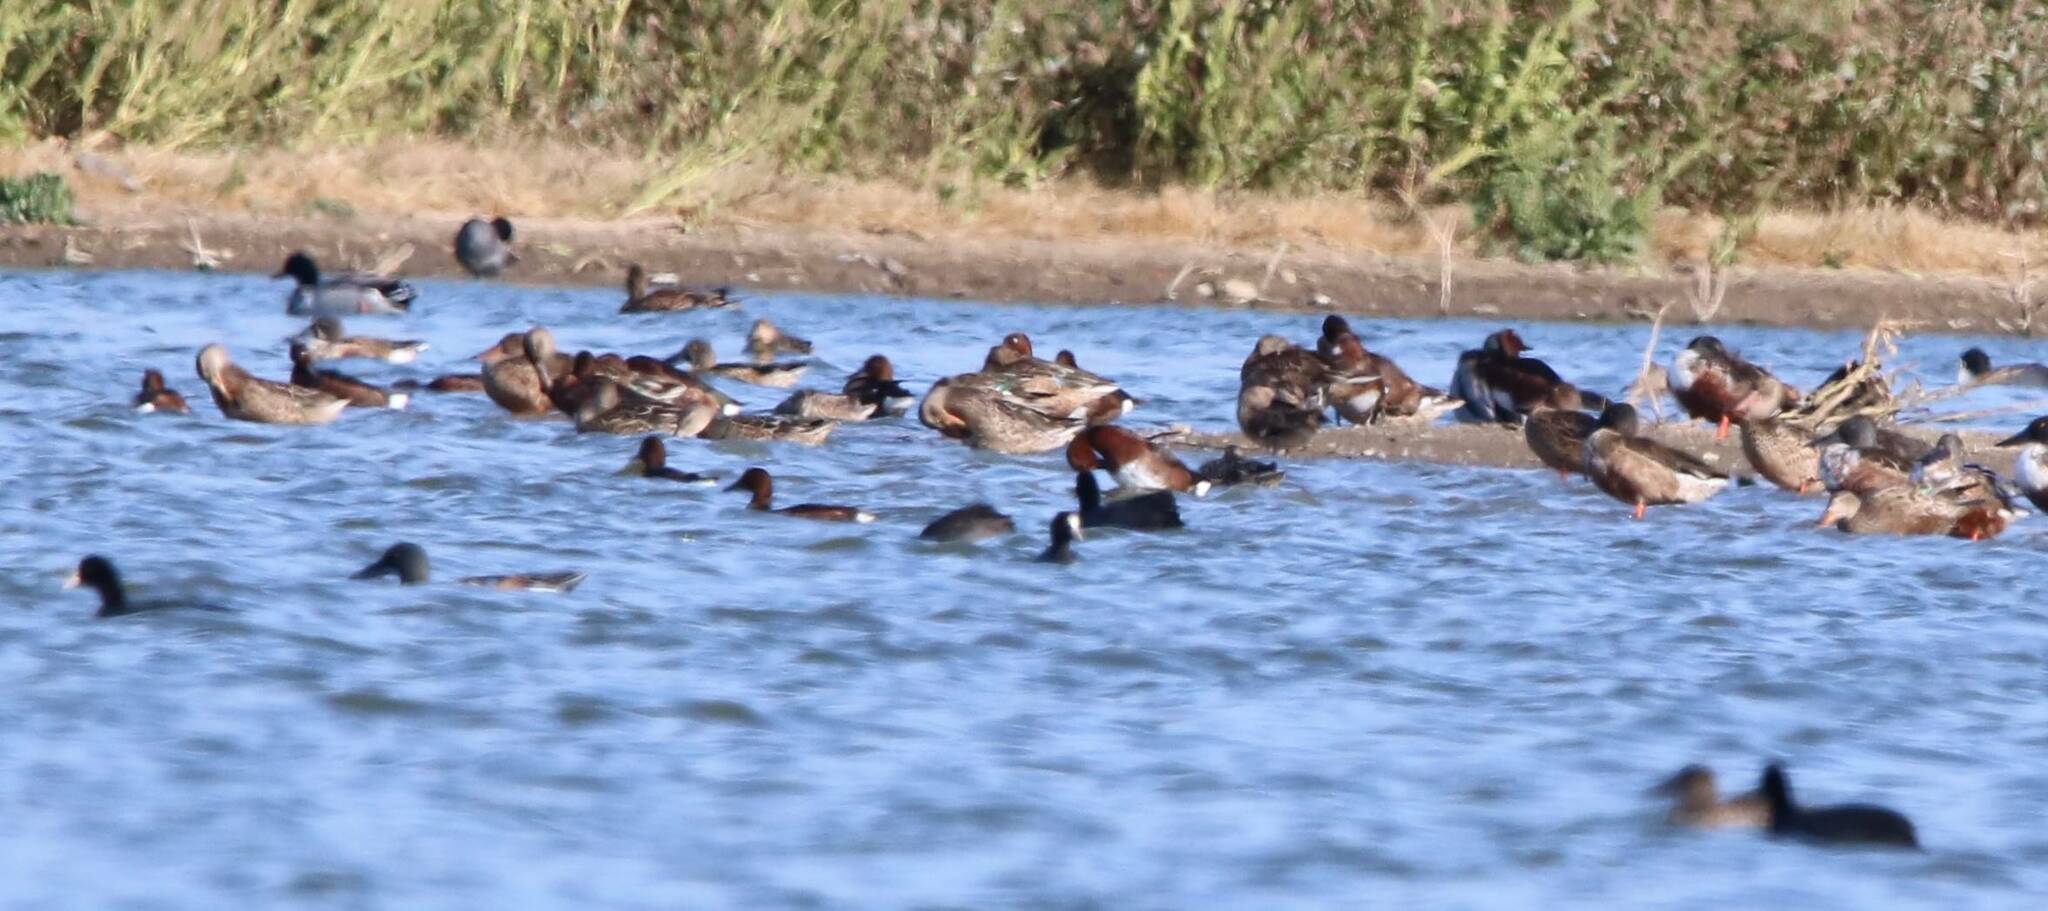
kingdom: Animalia
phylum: Chordata
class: Aves
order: Anseriformes
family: Anatidae
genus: Aythya
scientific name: Aythya nyroca
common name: Ferruginous duck
